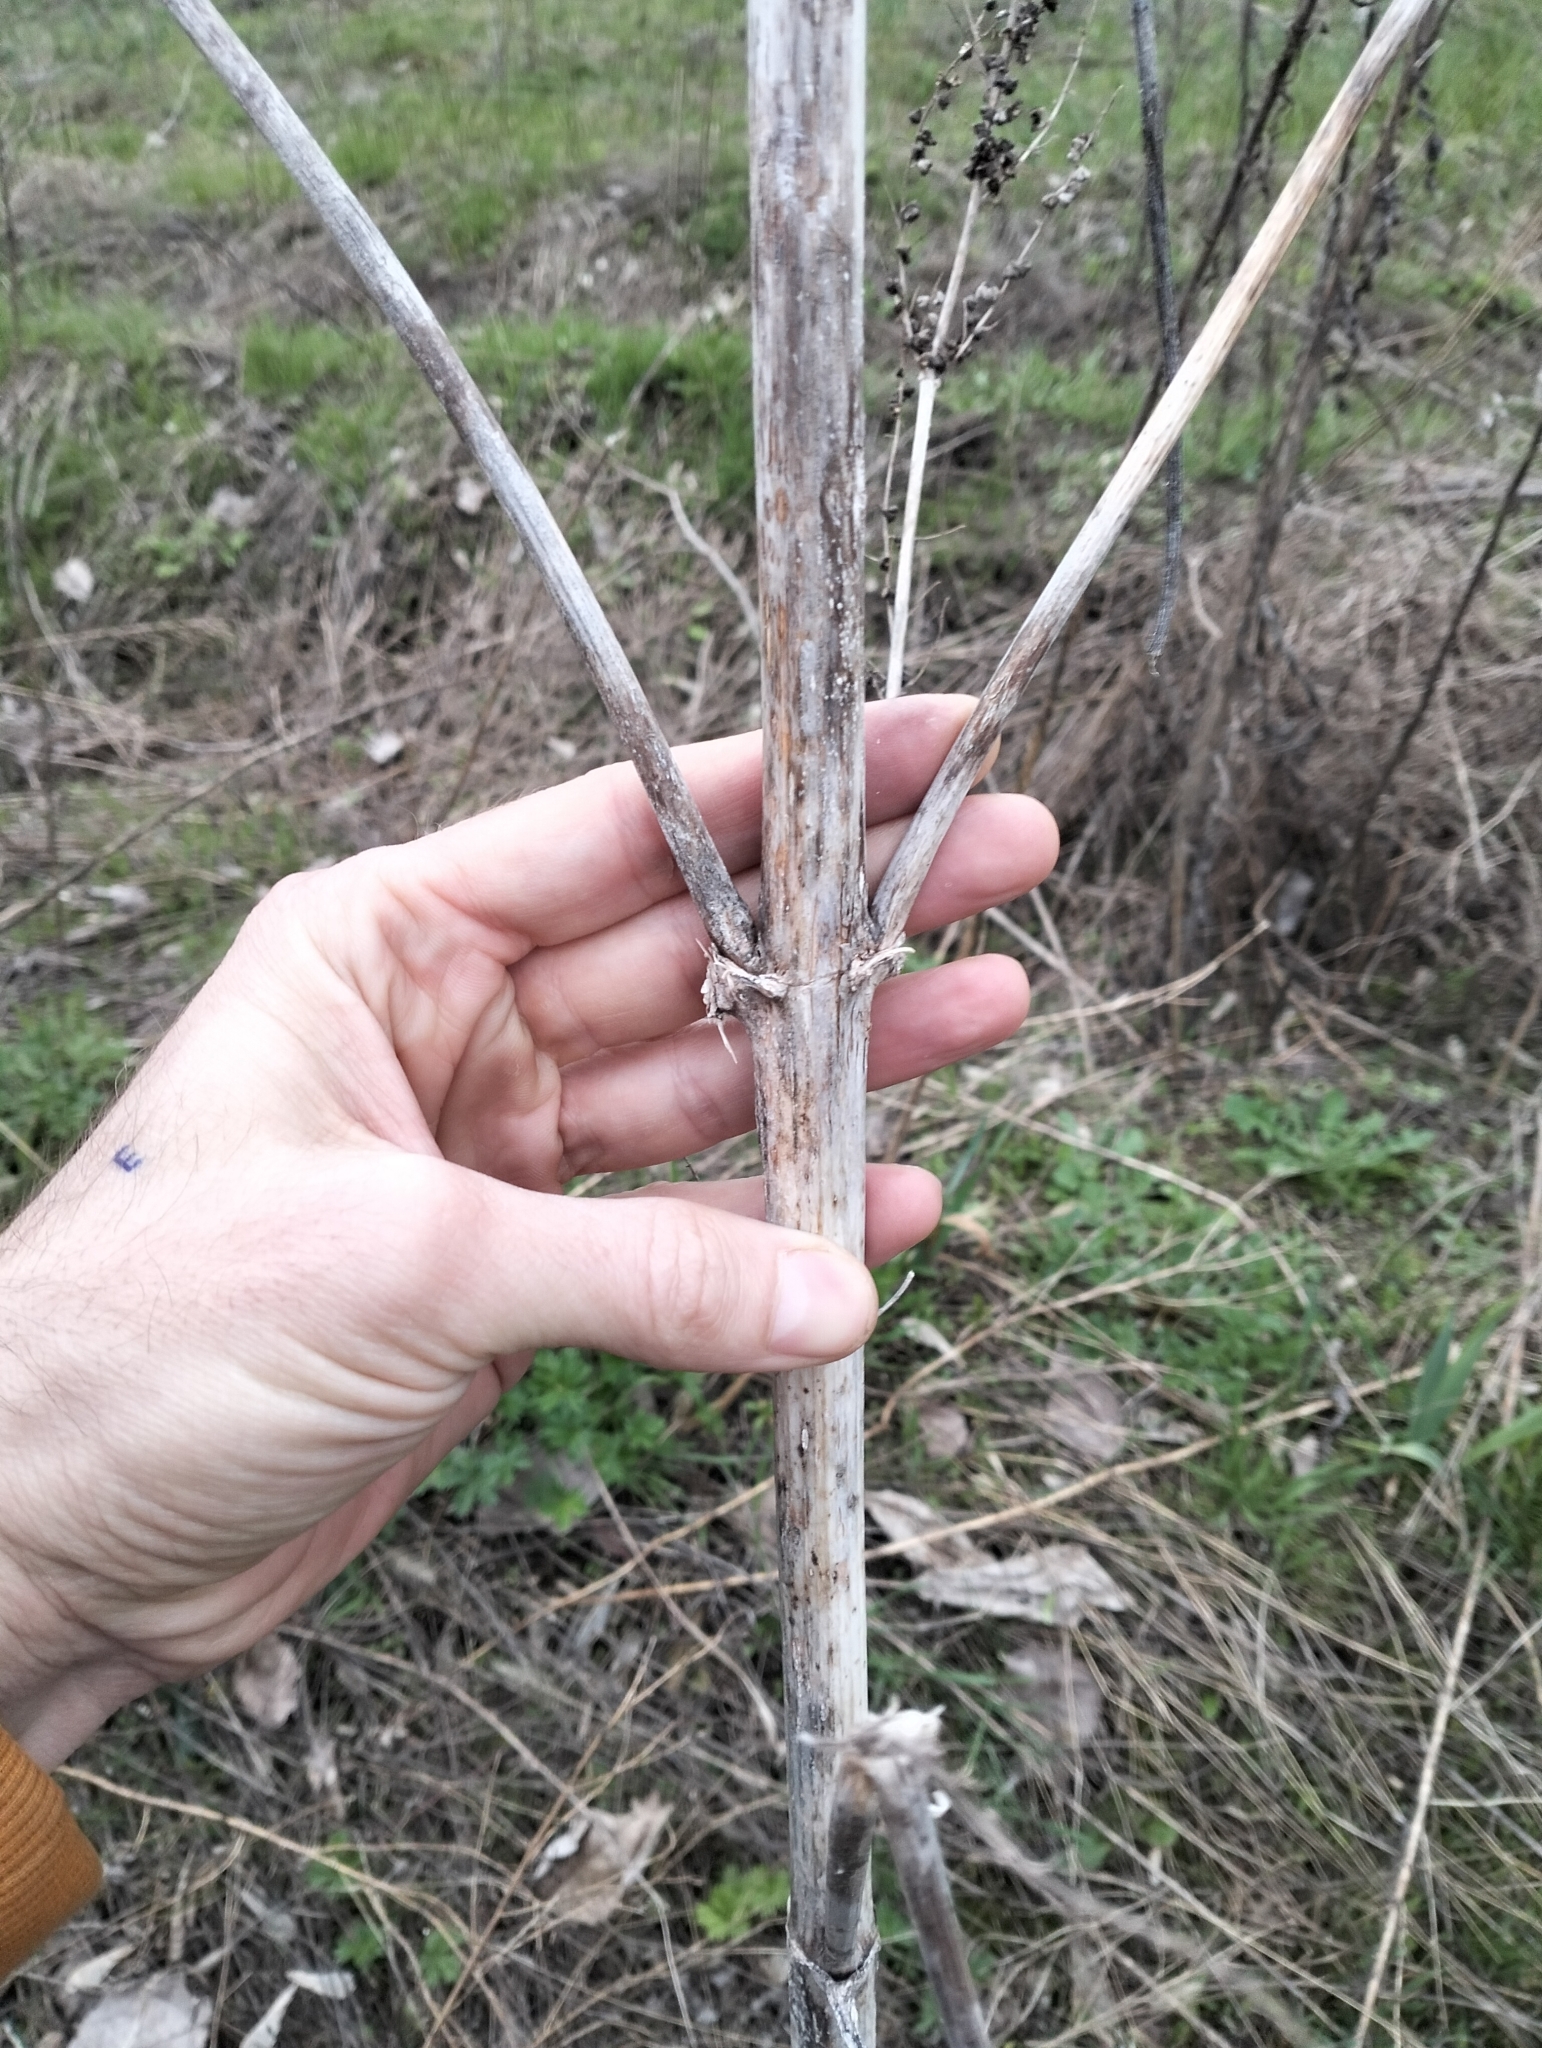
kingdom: Plantae
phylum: Tracheophyta
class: Magnoliopsida
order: Asterales
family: Asteraceae
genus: Cyclachaena
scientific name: Cyclachaena xanthiifolia
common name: Giant sumpweed
